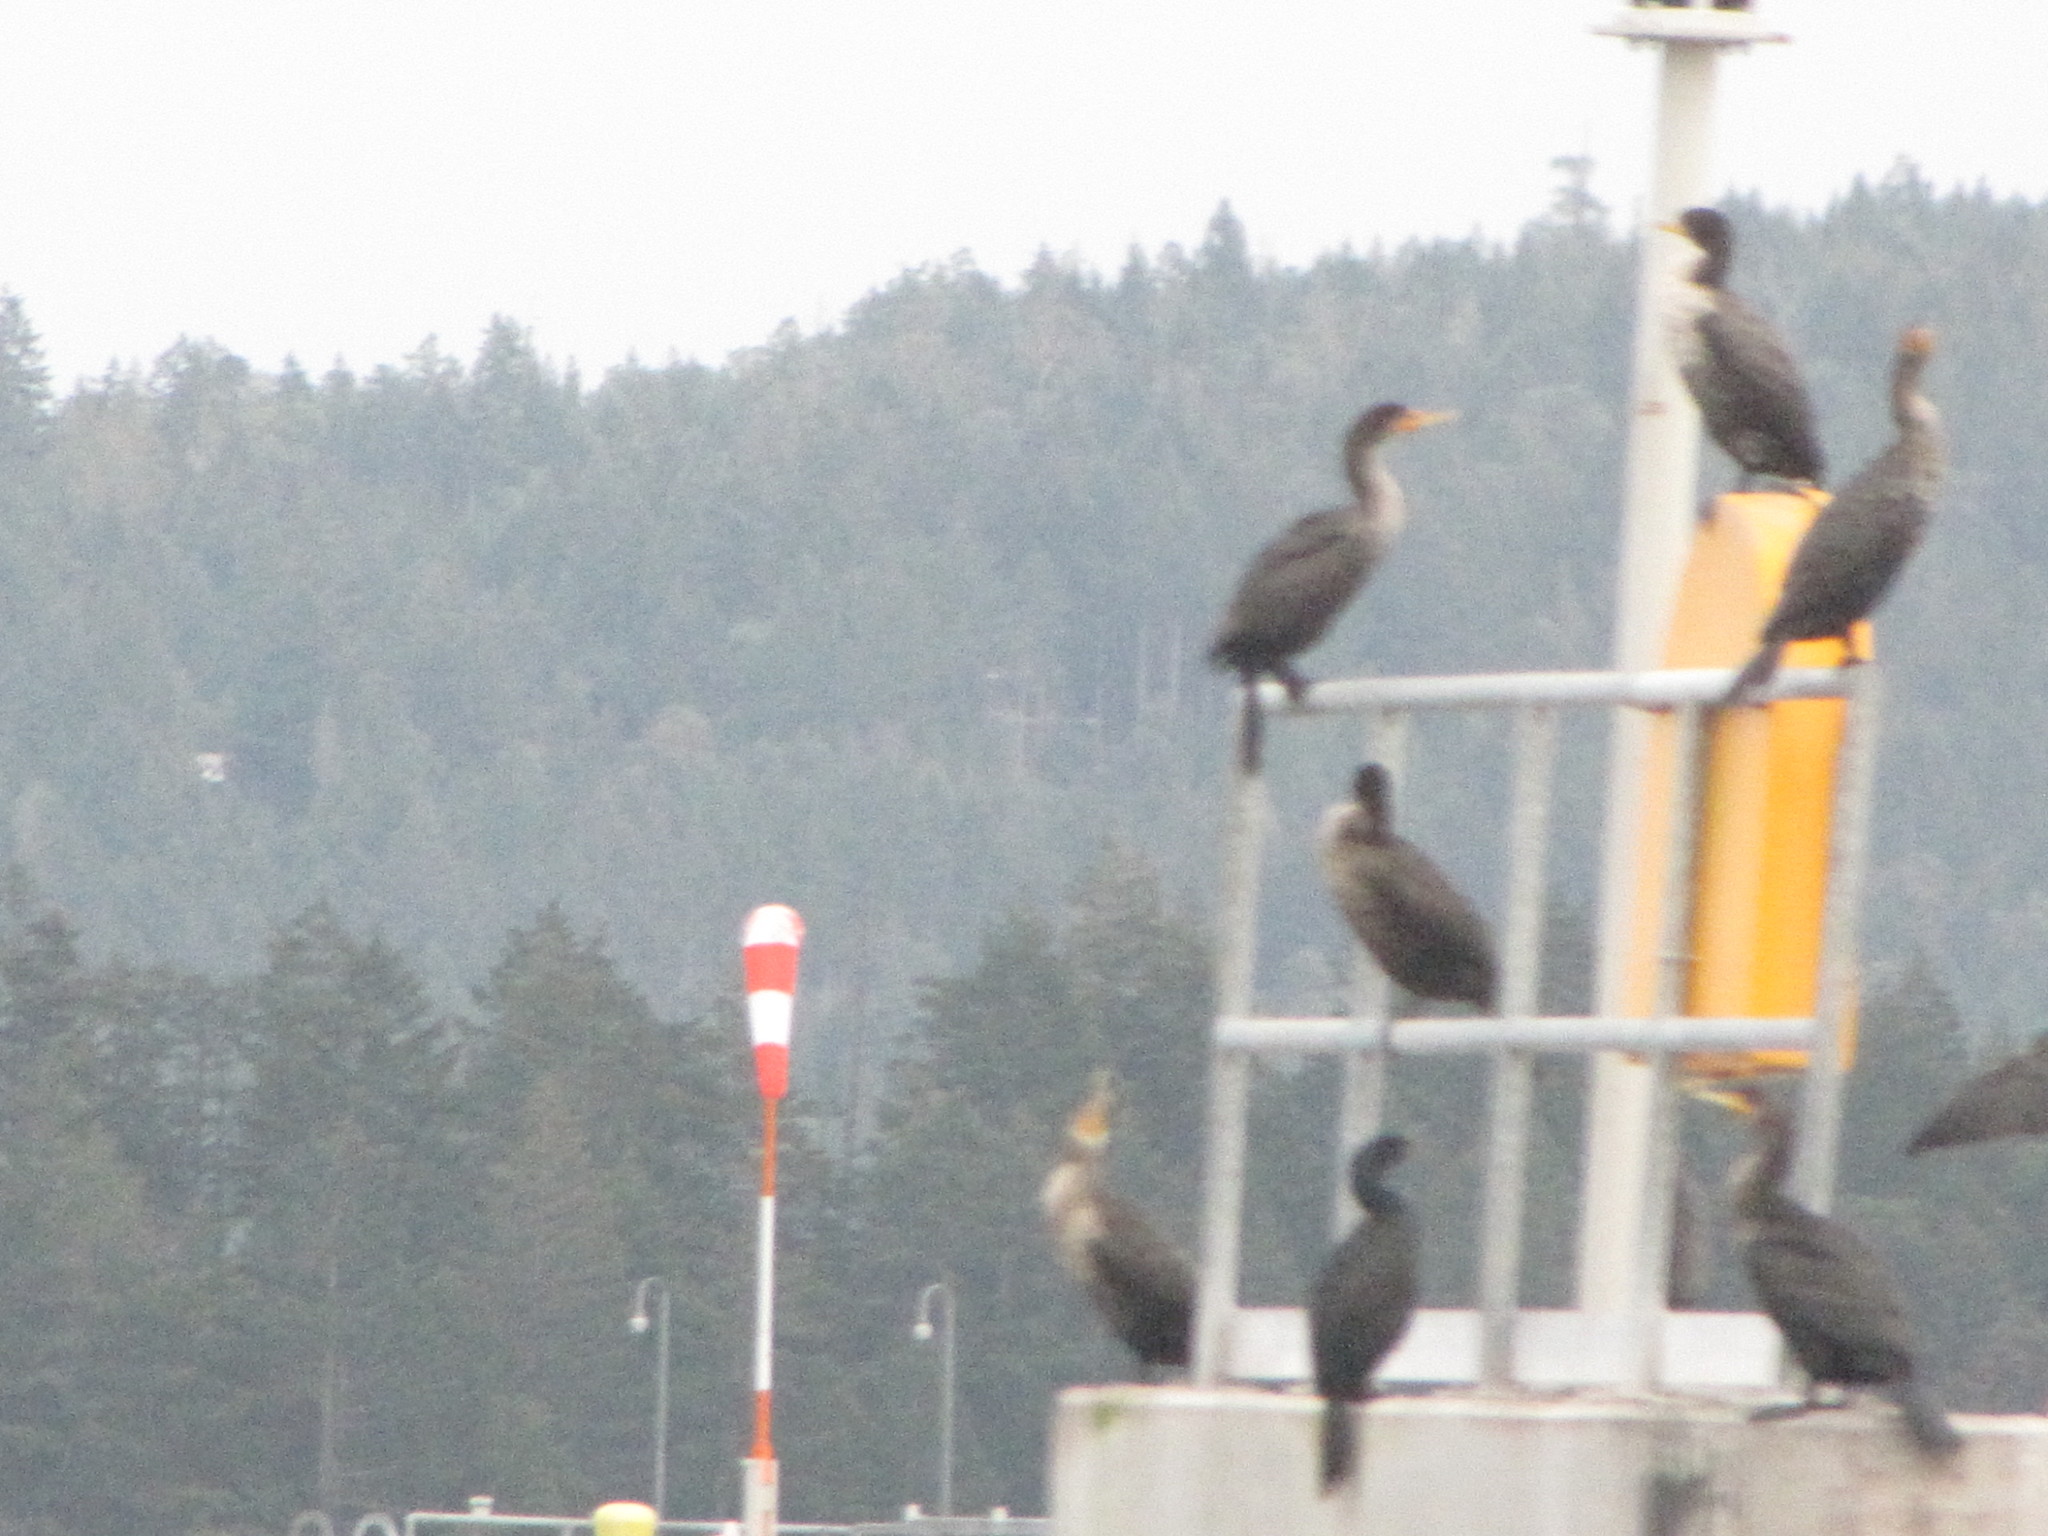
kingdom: Animalia
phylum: Chordata
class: Aves
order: Suliformes
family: Phalacrocoracidae
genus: Phalacrocorax
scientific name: Phalacrocorax auritus
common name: Double-crested cormorant
